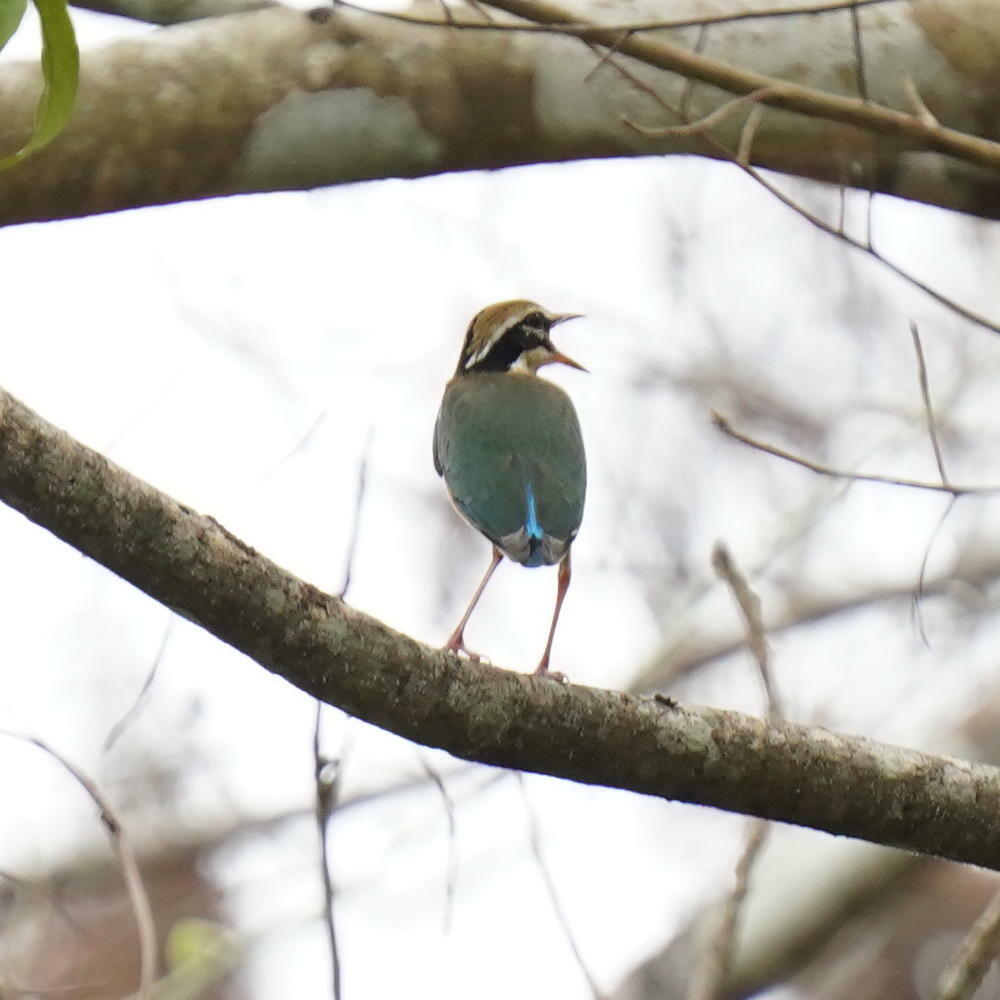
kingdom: Animalia
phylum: Chordata
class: Aves
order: Passeriformes
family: Pittidae
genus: Pitta
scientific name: Pitta brachyura
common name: Indian pitta
